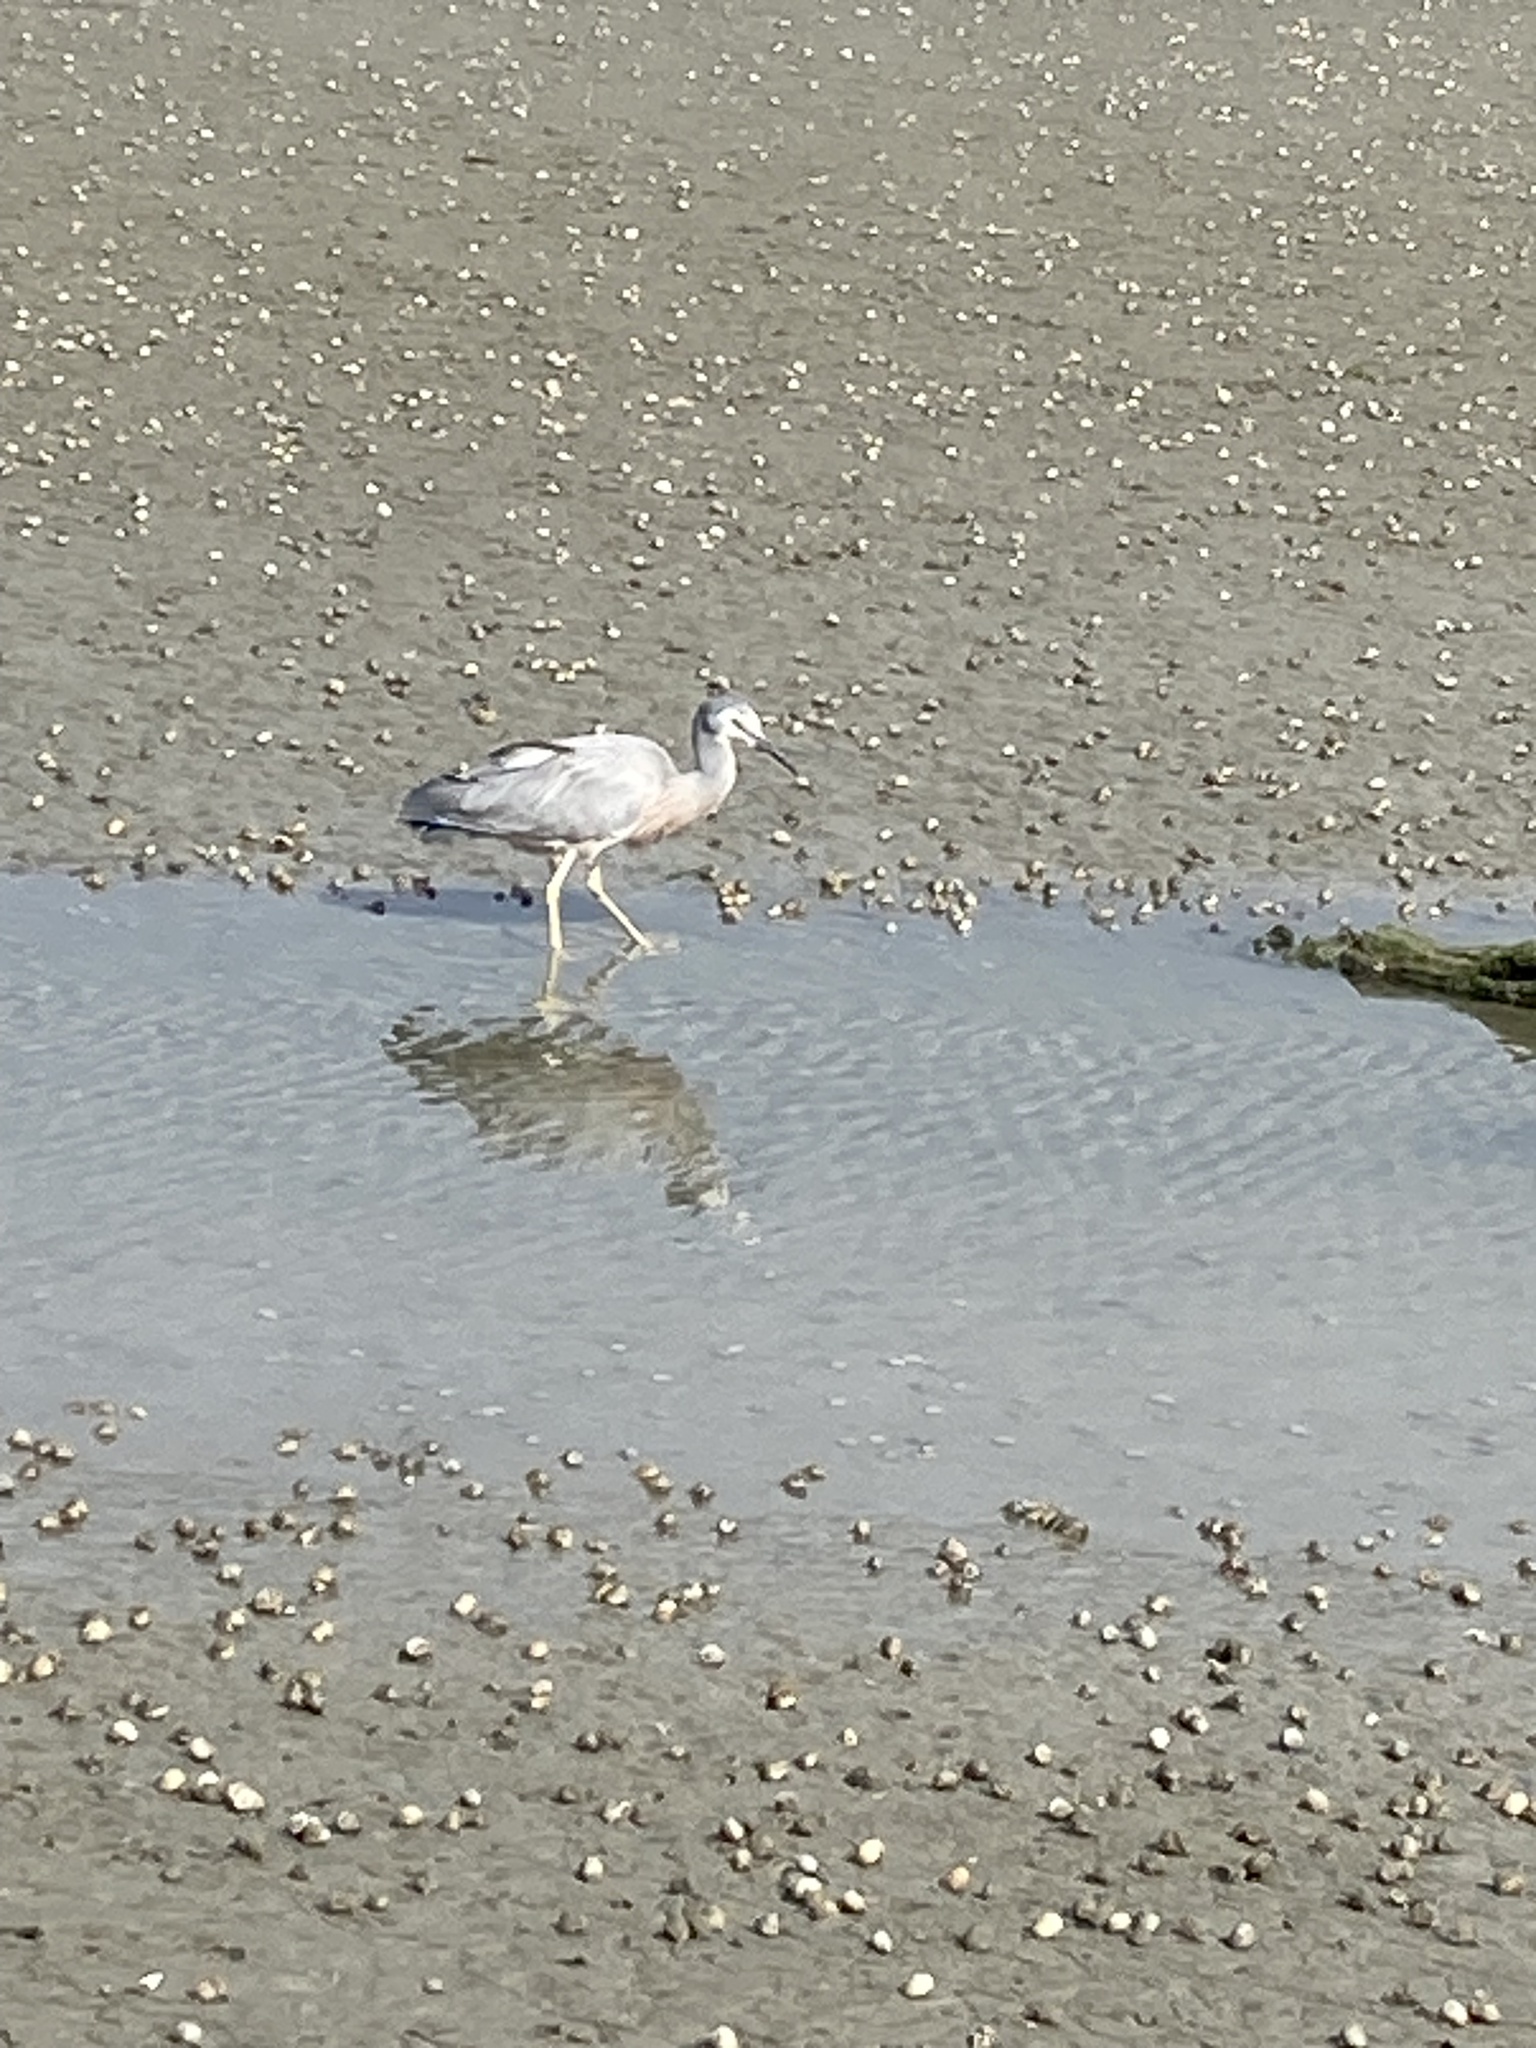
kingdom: Animalia
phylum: Chordata
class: Aves
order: Pelecaniformes
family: Ardeidae
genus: Egretta
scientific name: Egretta novaehollandiae
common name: White-faced heron
